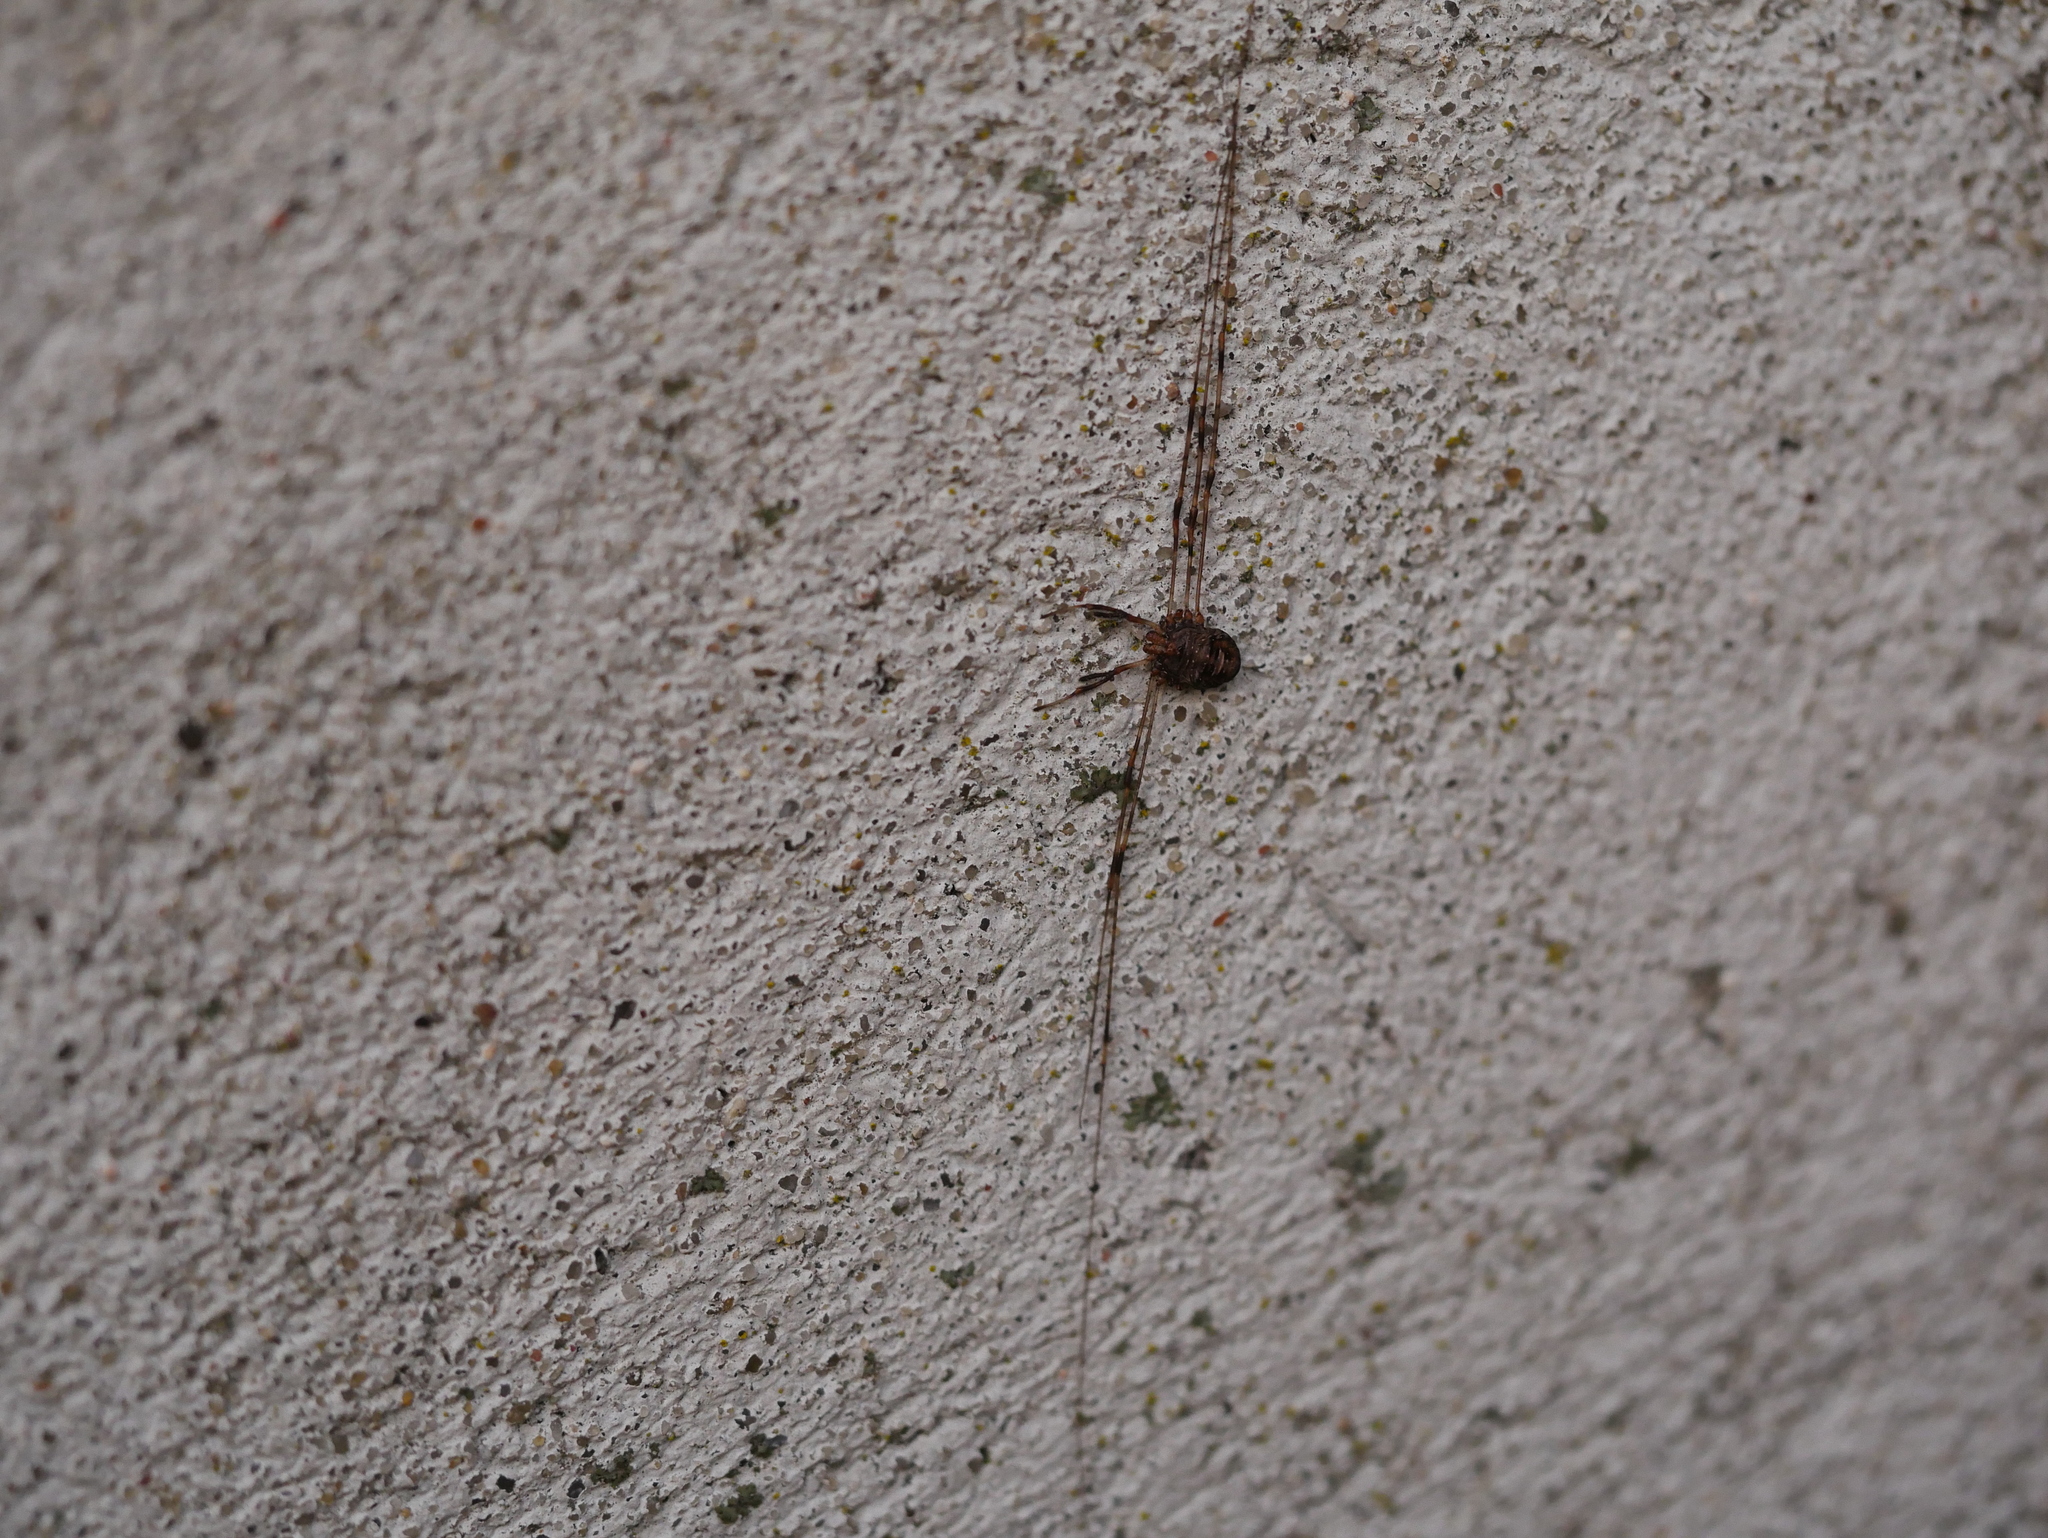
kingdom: Animalia
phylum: Arthropoda
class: Arachnida
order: Opiliones
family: Phalangiidae
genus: Dicranopalpus
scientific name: Dicranopalpus ramosus
